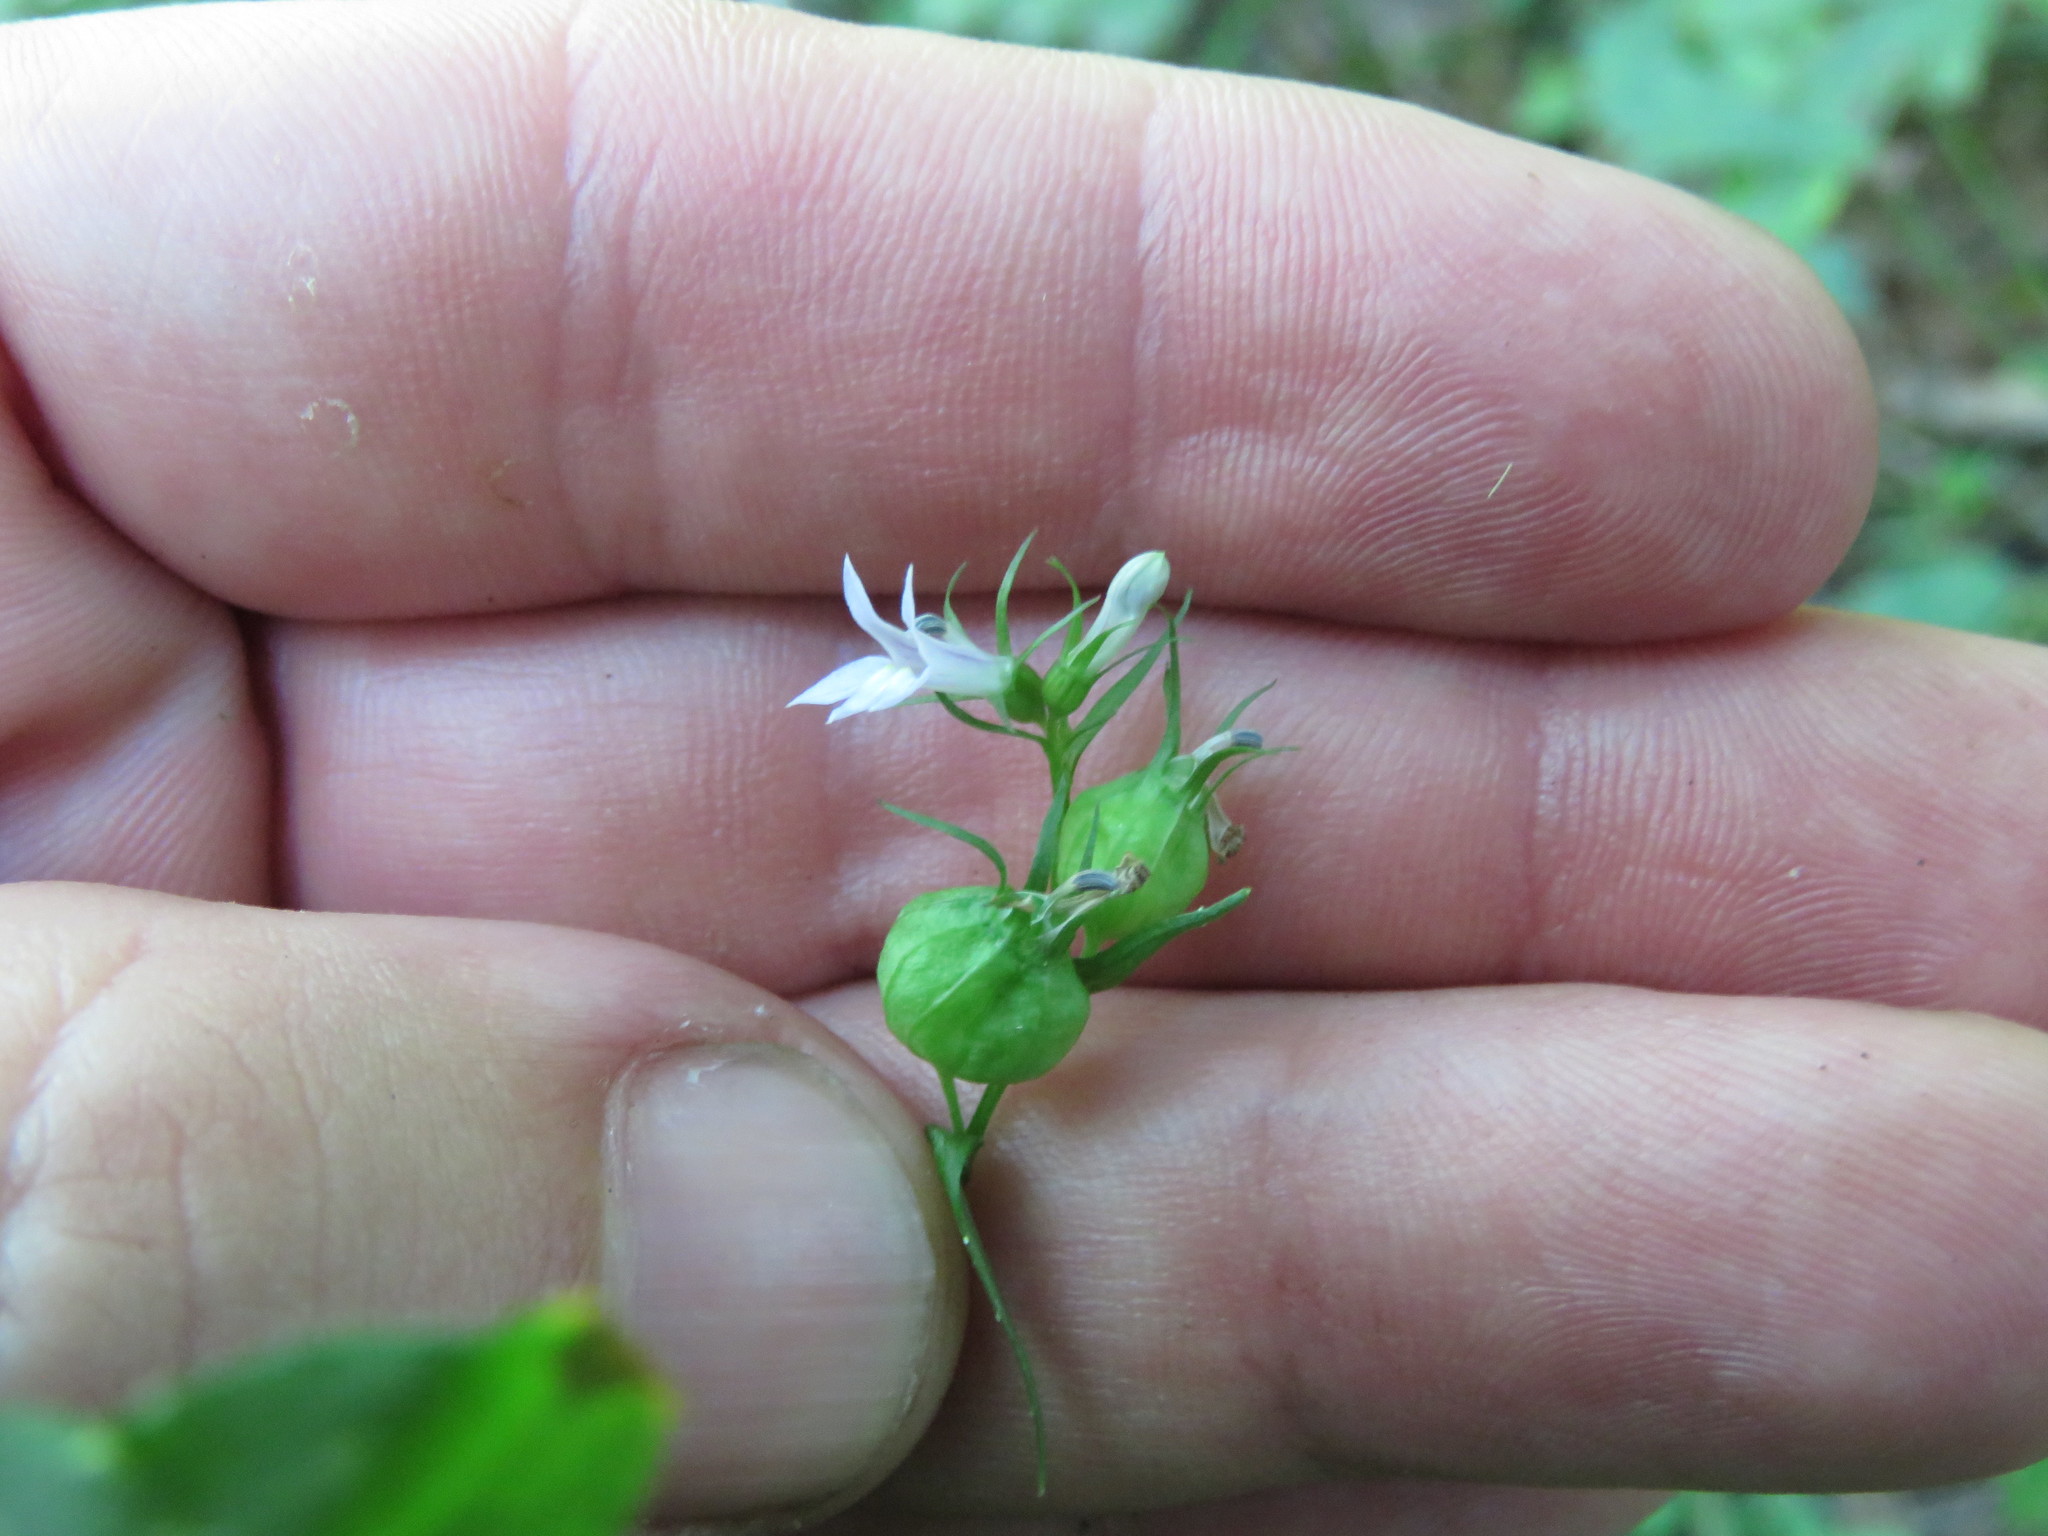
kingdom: Plantae
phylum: Tracheophyta
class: Magnoliopsida
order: Asterales
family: Campanulaceae
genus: Lobelia
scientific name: Lobelia inflata
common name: Indian tobacco
